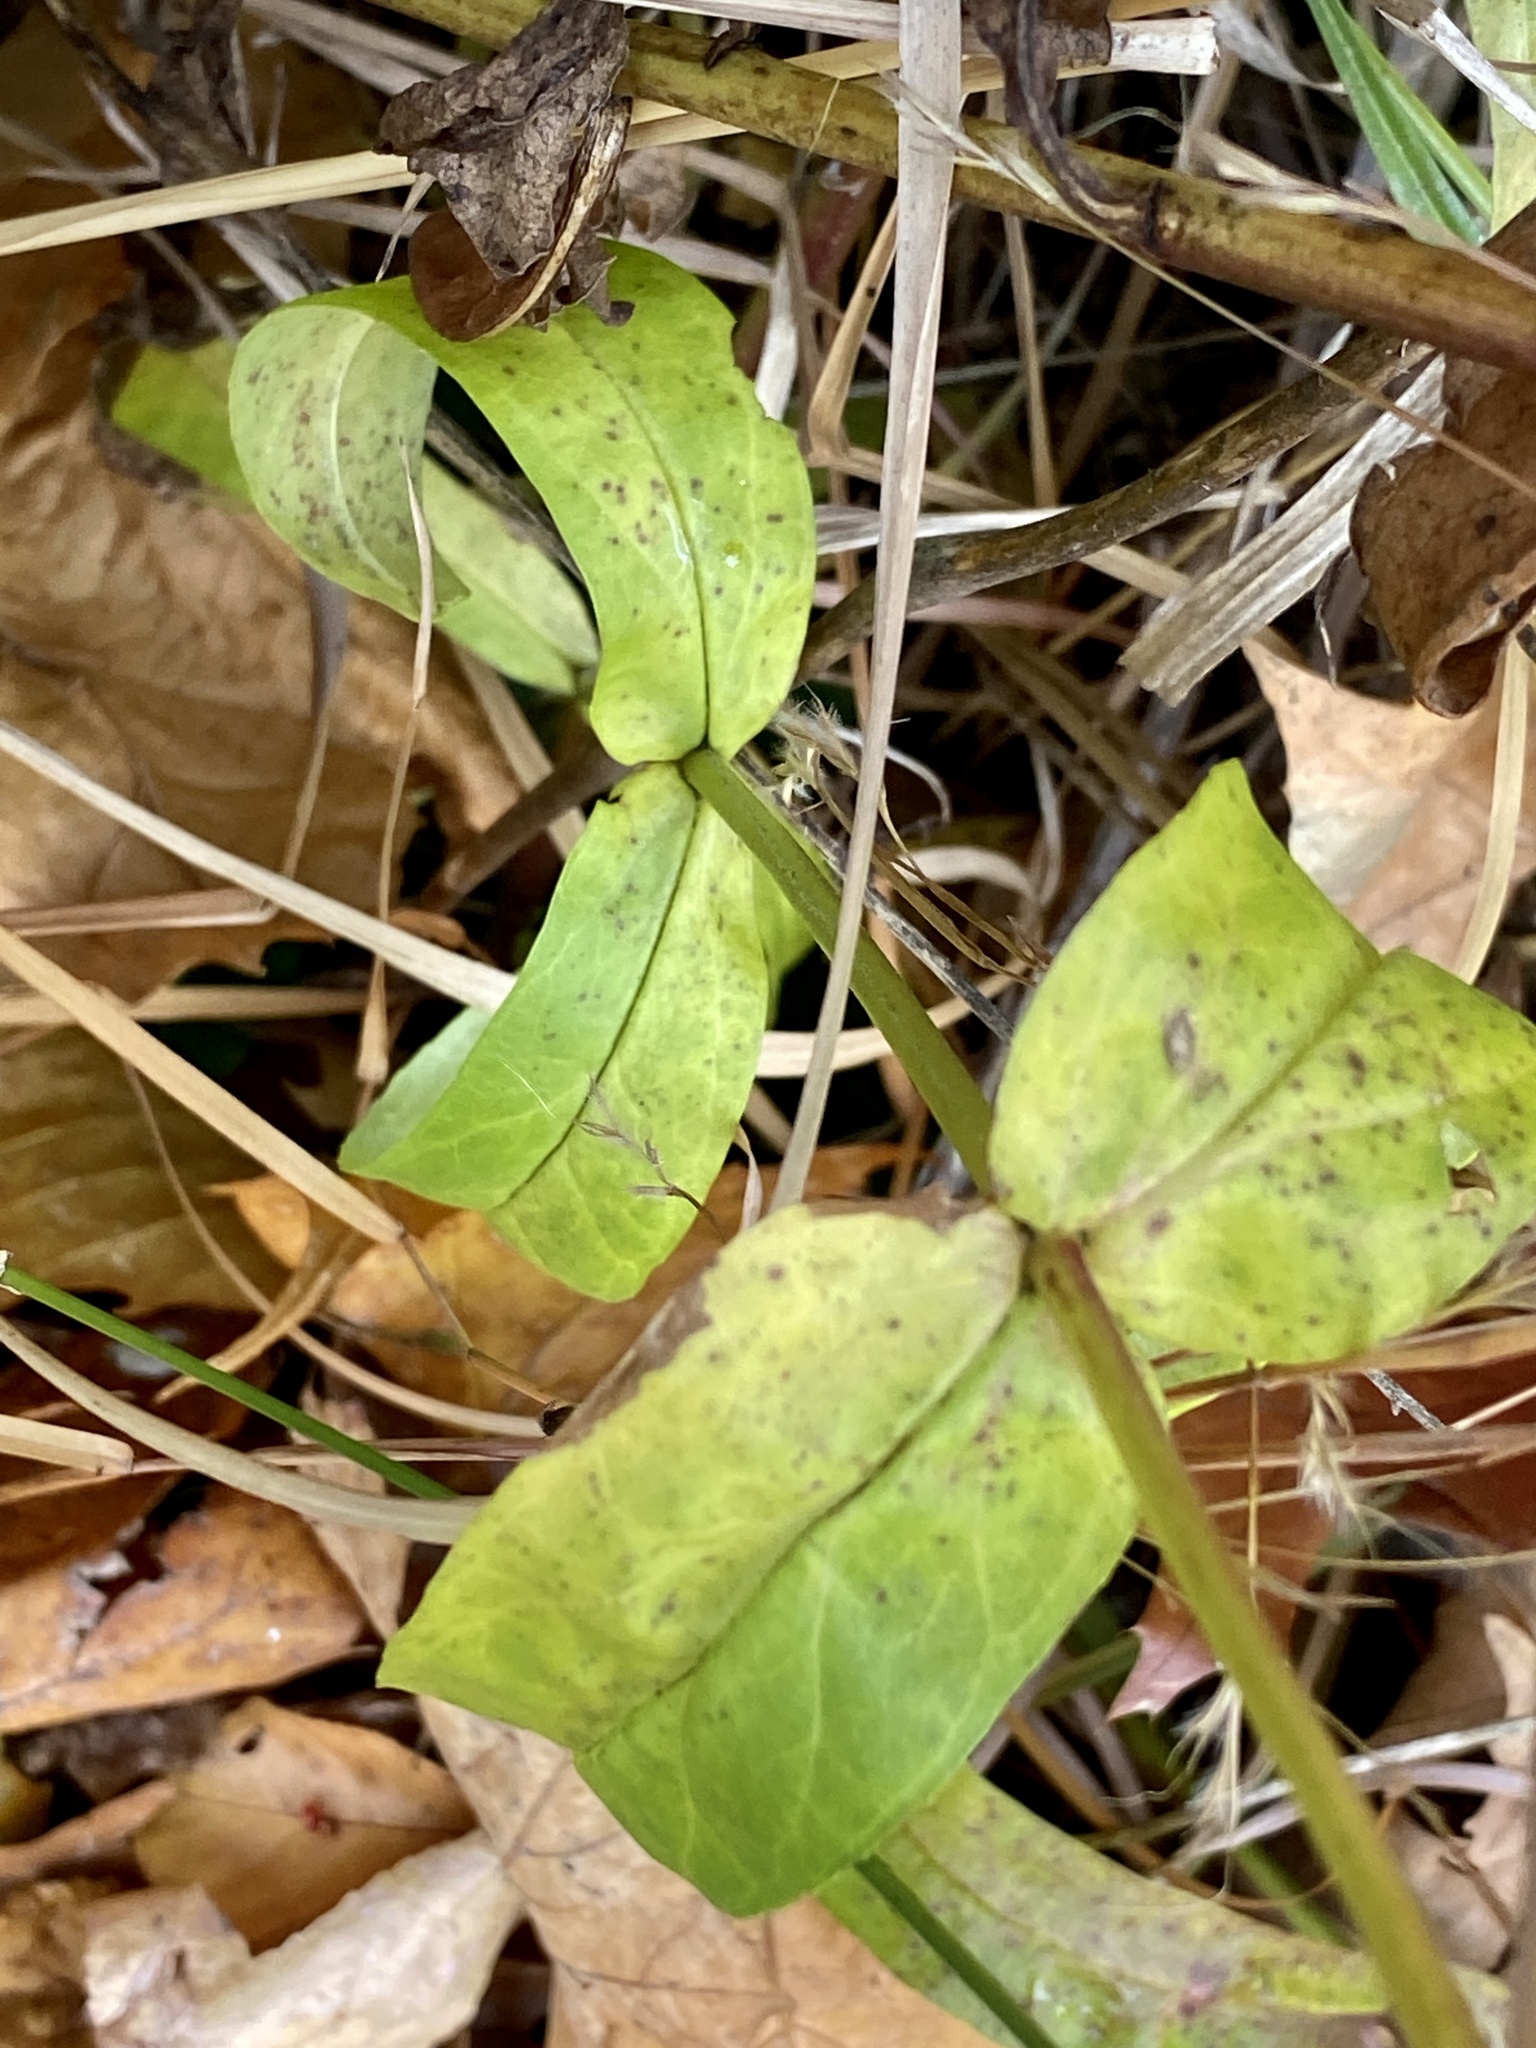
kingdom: Plantae
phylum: Tracheophyta
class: Magnoliopsida
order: Lamiales
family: Plantaginaceae
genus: Penstemon
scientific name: Penstemon digitalis
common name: Foxglove beardtongue
